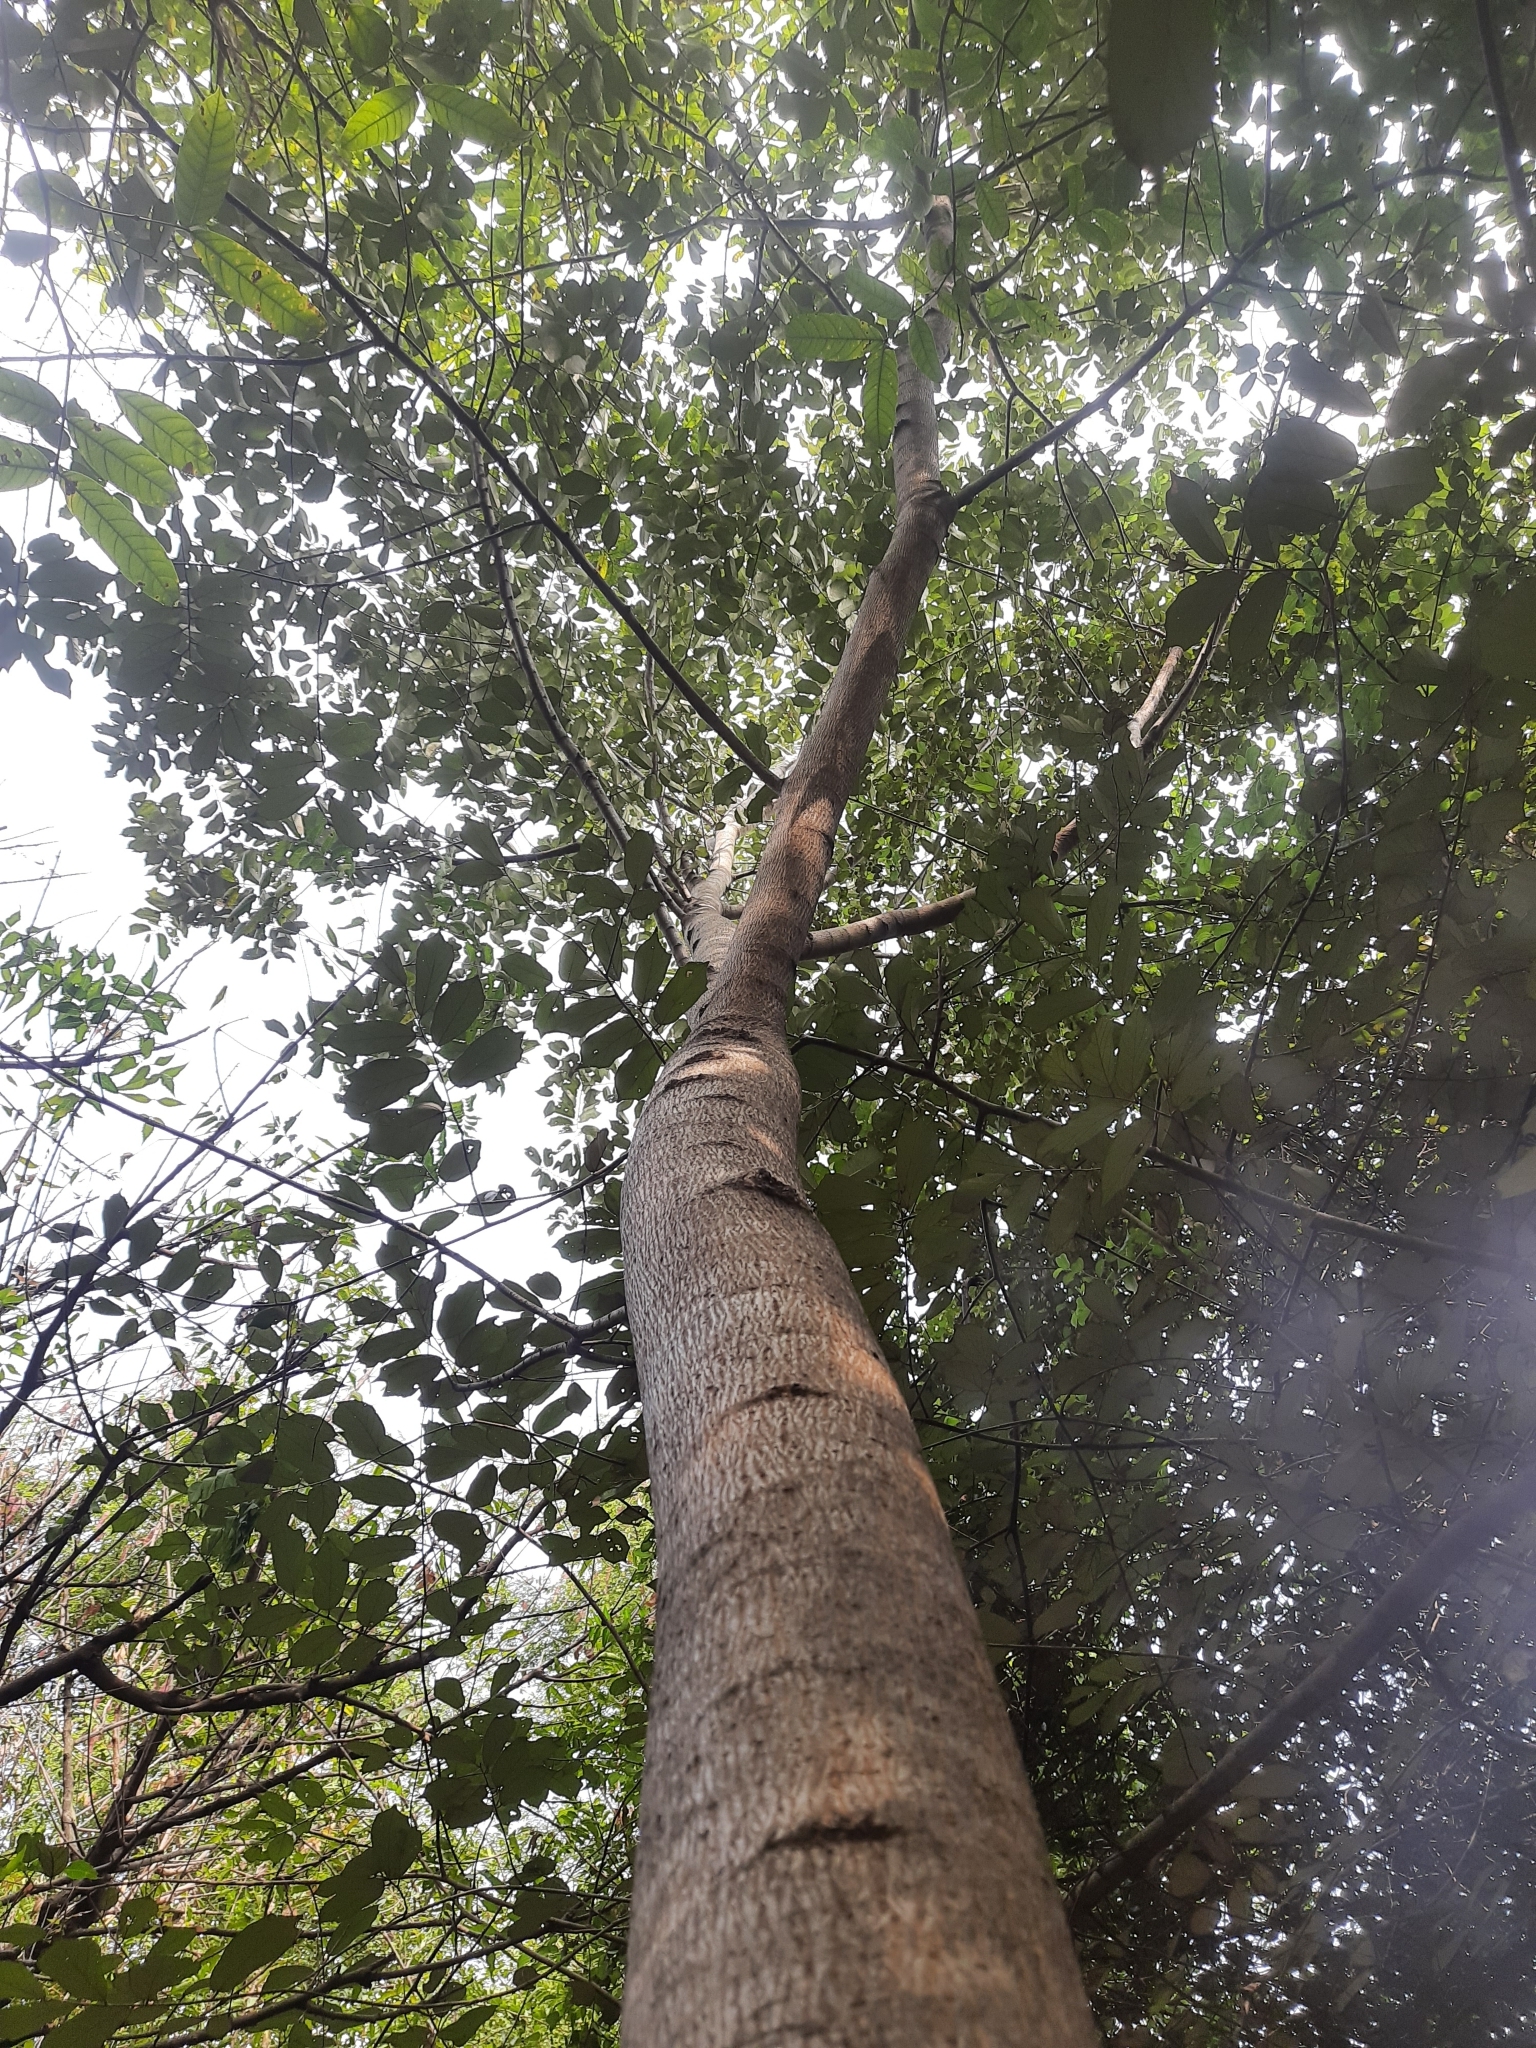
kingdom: Plantae
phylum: Tracheophyta
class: Magnoliopsida
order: Malvales
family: Malvaceae
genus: Pterospermum
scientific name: Pterospermum suberifolium
